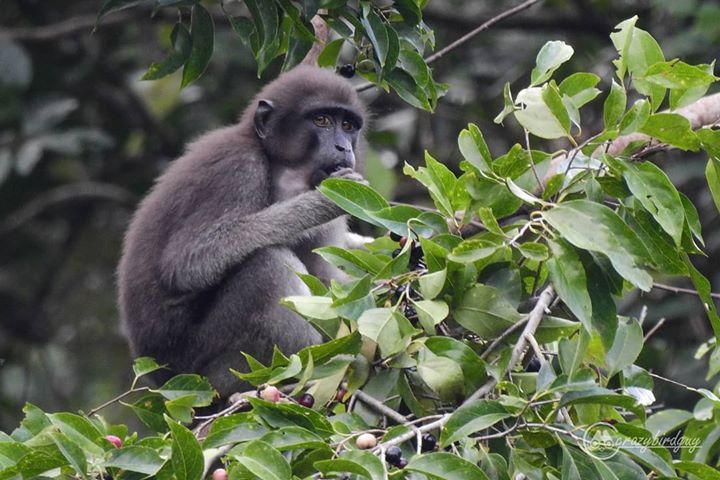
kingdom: Animalia
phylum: Chordata
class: Mammalia
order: Primates
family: Cercopithecidae
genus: Macaca
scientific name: Macaca ochreata
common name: Booted macaque
